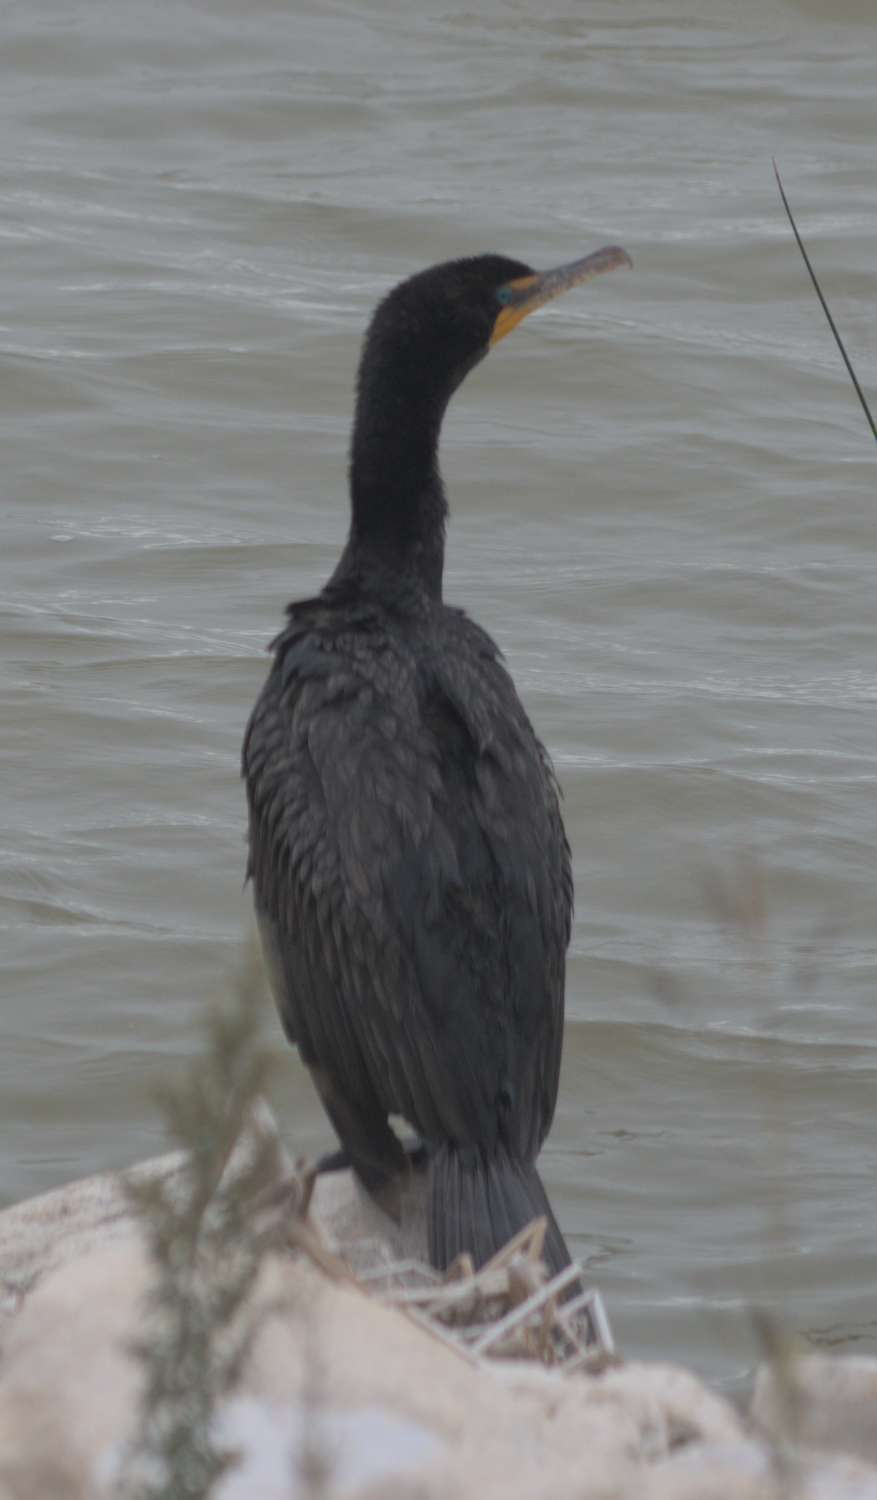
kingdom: Animalia
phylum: Chordata
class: Aves
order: Suliformes
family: Phalacrocoracidae
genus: Phalacrocorax
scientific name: Phalacrocorax auritus
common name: Double-crested cormorant
